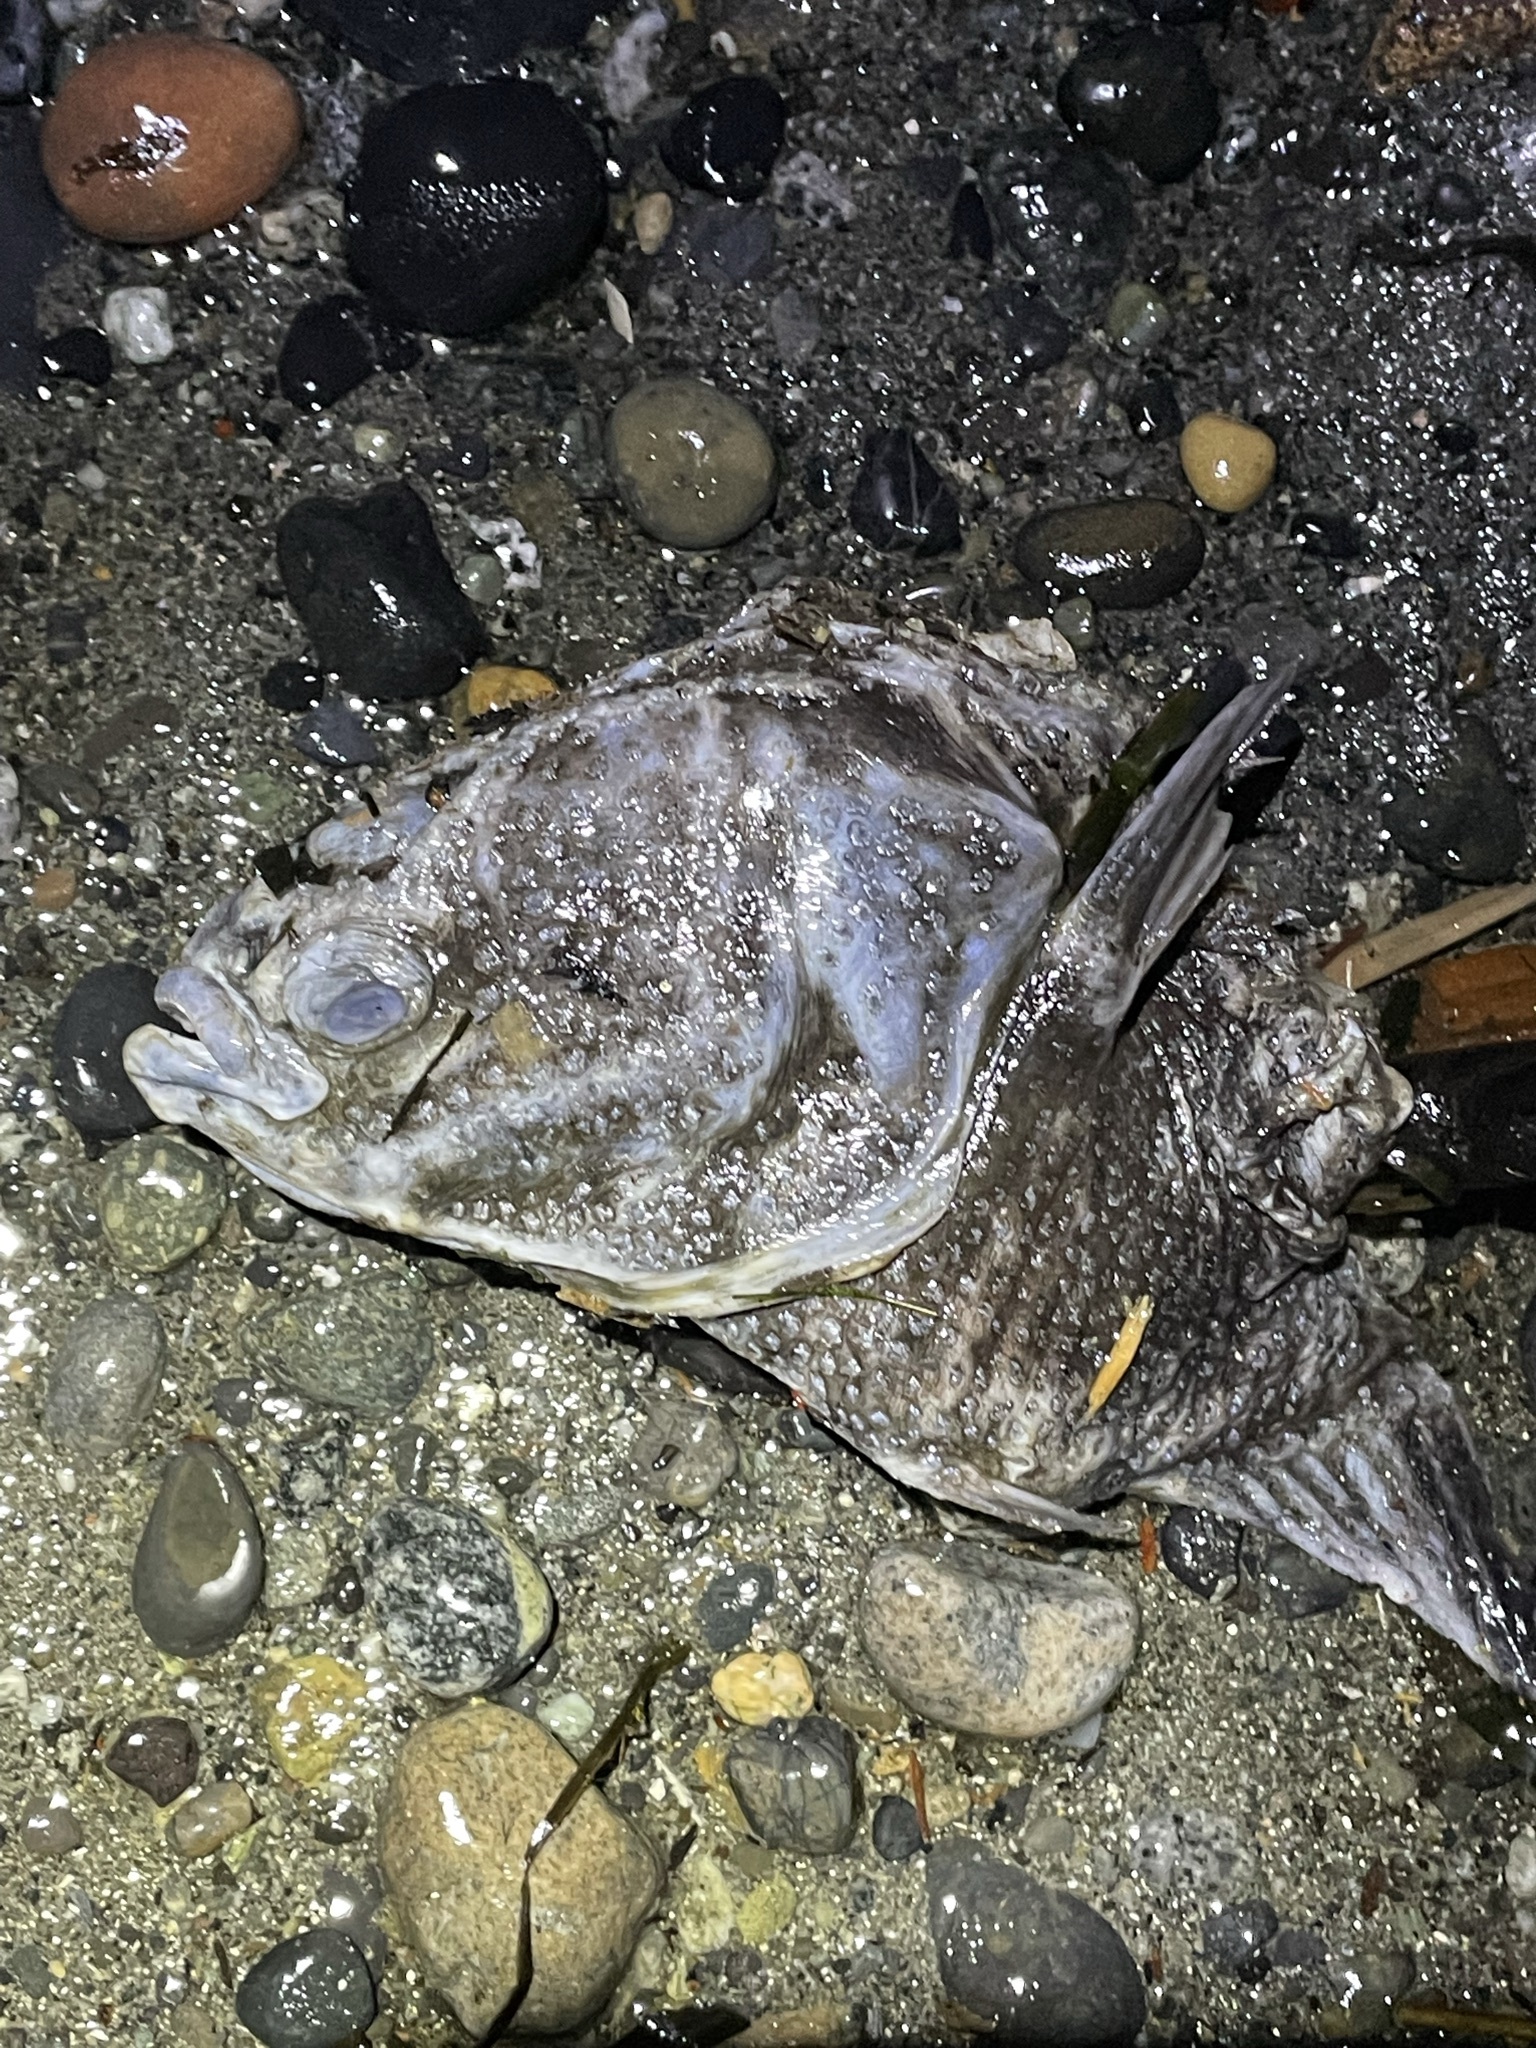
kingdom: Animalia
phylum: Chordata
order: Pleuronectiformes
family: Pleuronectidae
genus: Platichthys
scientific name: Platichthys stellatus
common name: Starry flounder
